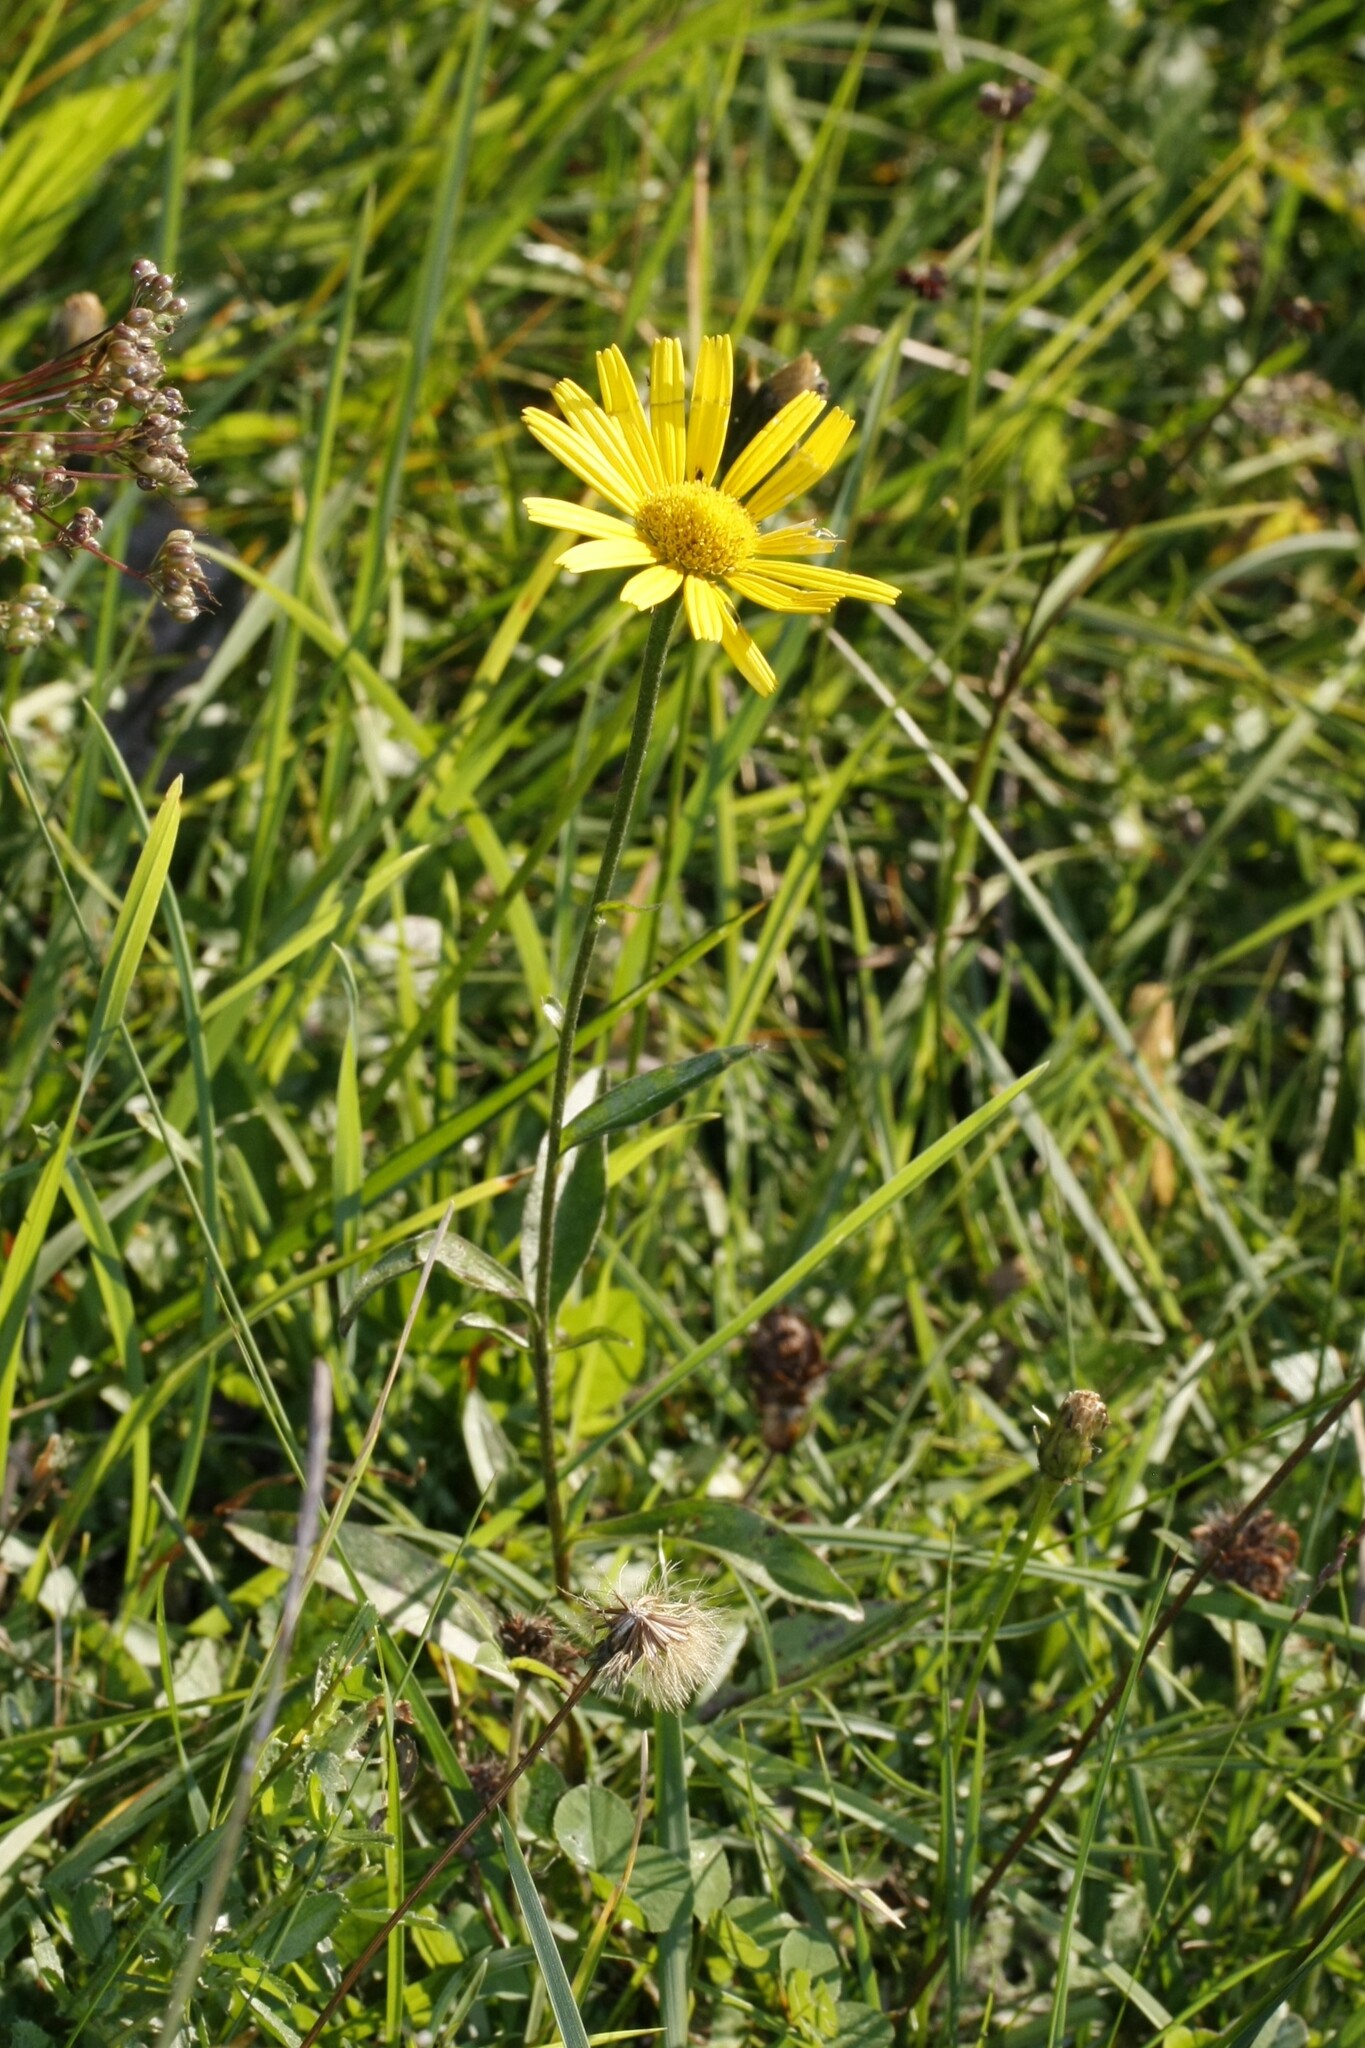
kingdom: Plantae
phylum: Tracheophyta
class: Magnoliopsida
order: Asterales
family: Asteraceae
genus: Buphthalmum
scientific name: Buphthalmum salicifolium
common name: Willow-leaved yellow-oxeye
